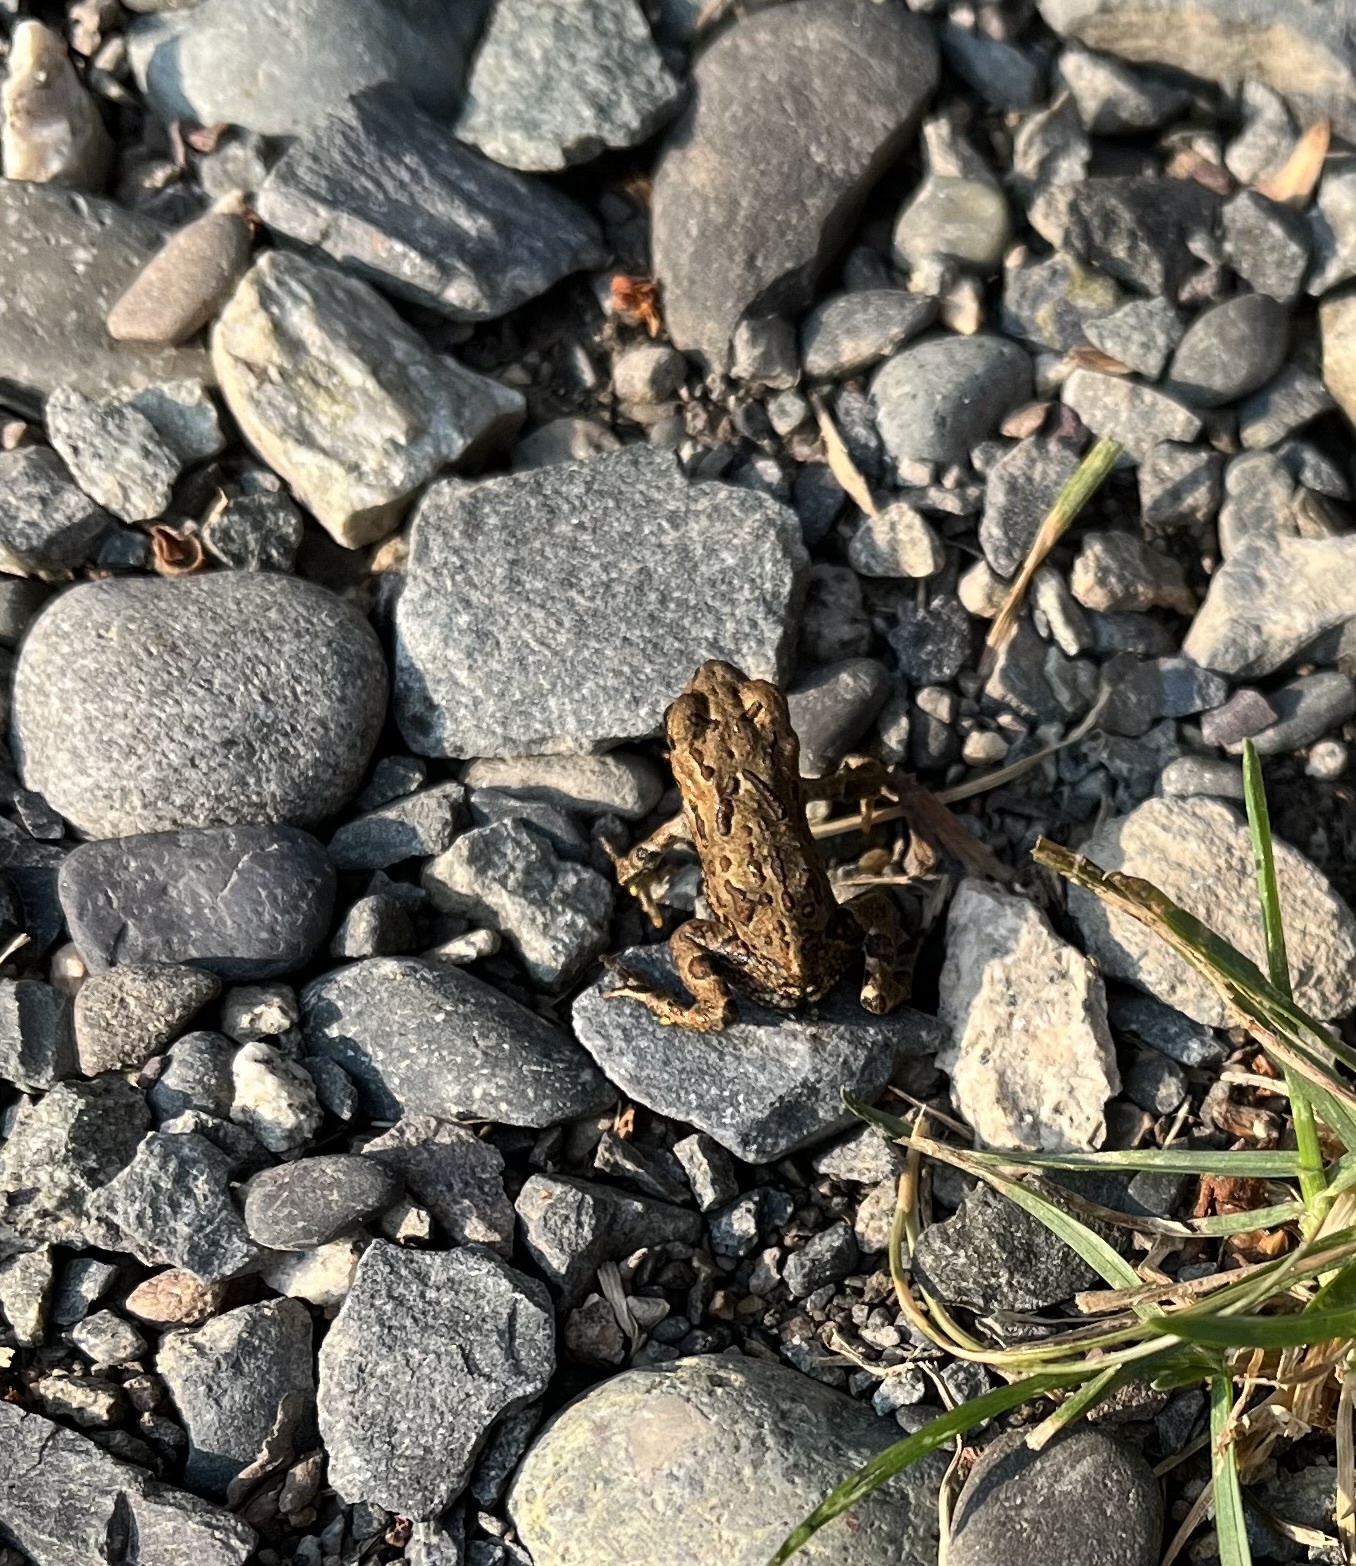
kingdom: Animalia
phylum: Chordata
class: Amphibia
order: Anura
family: Bufonidae
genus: Anaxyrus
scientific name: Anaxyrus boreas
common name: Western toad
